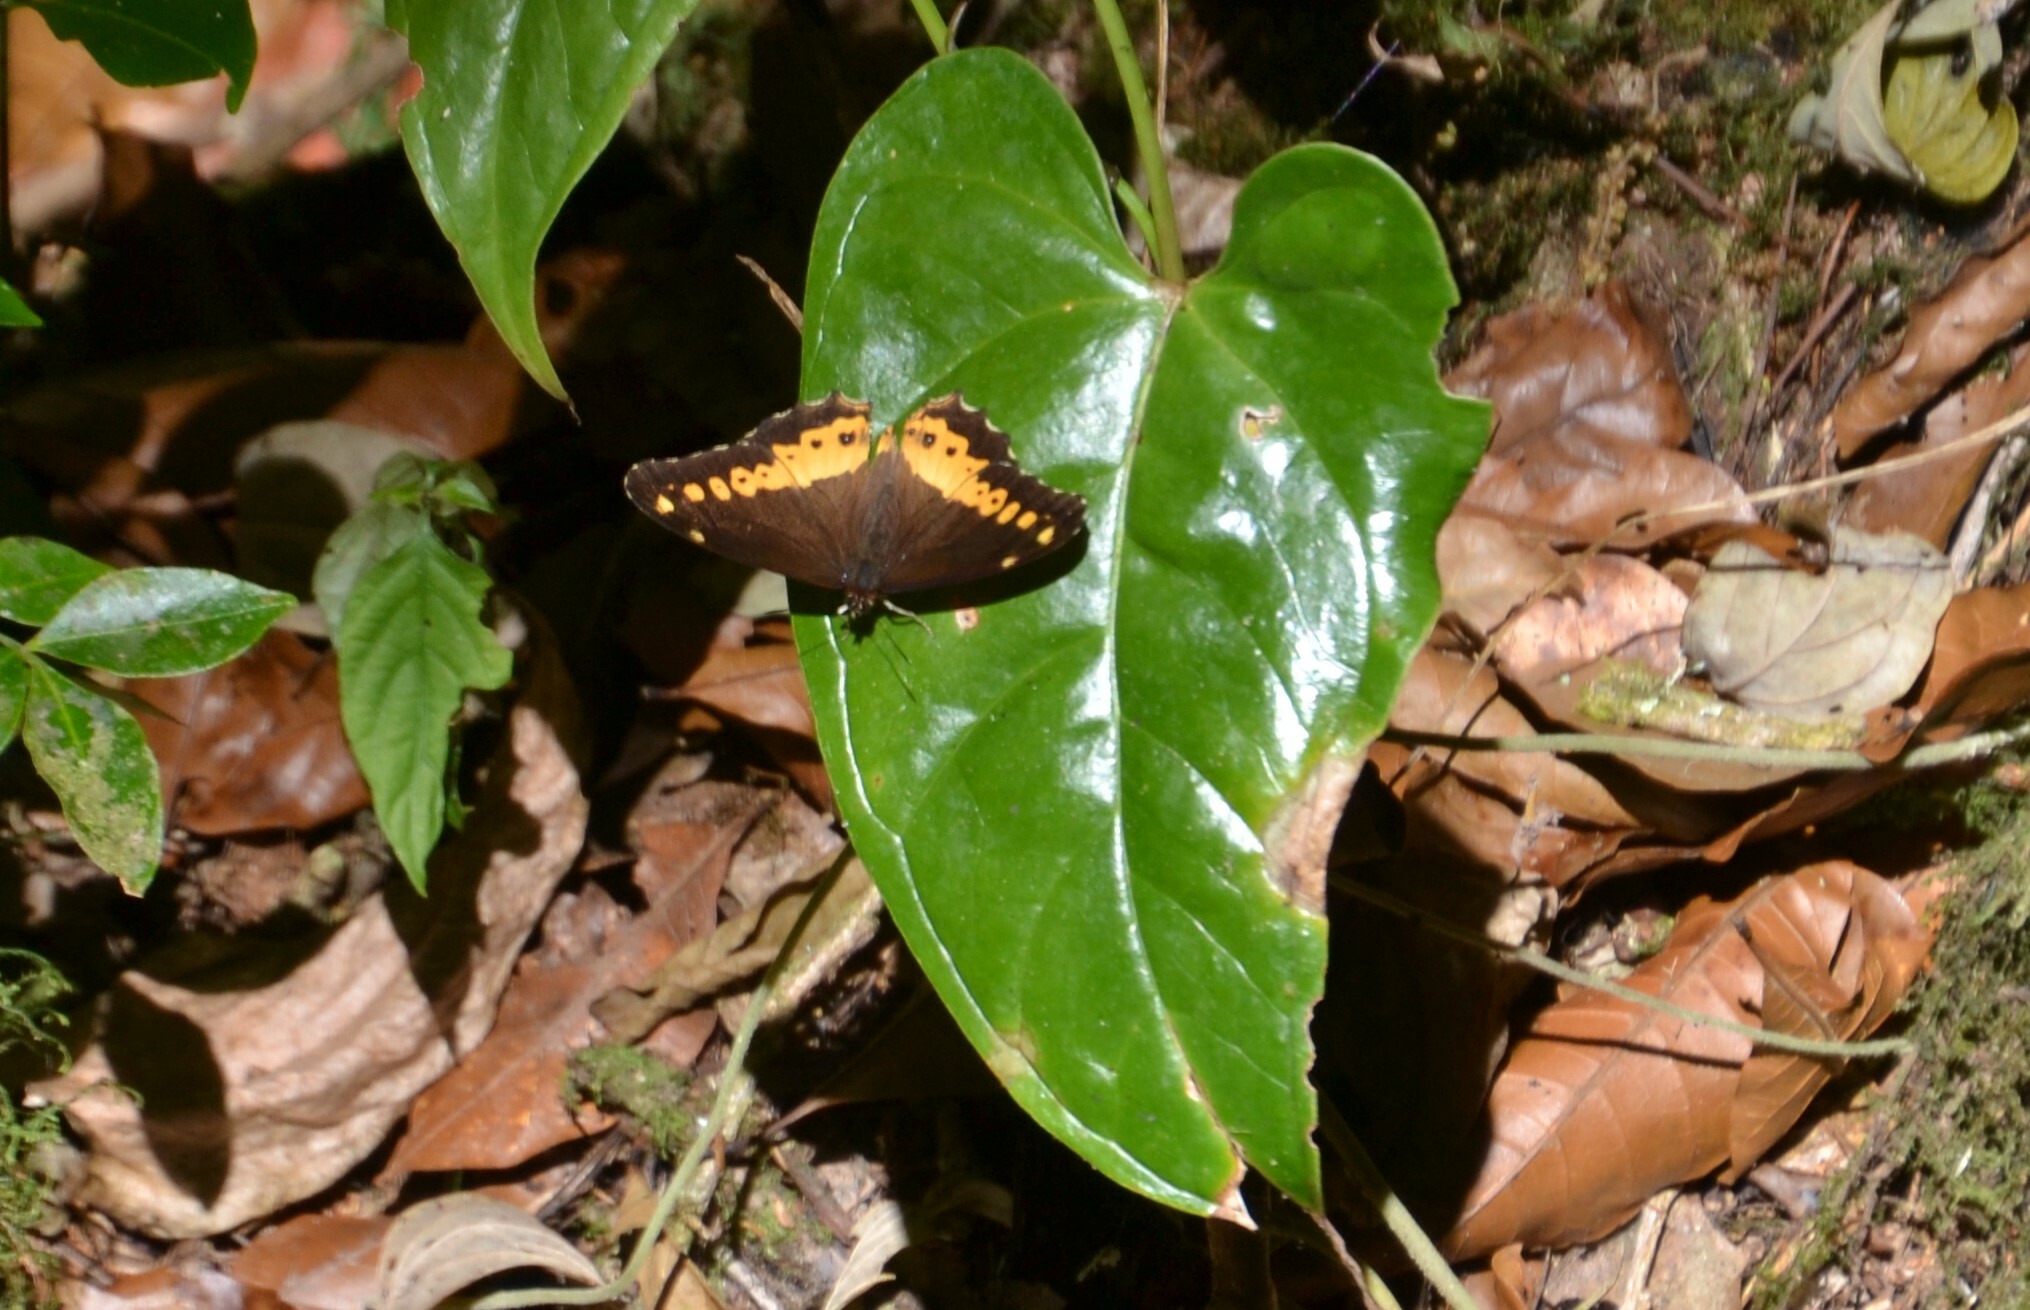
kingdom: Animalia
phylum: Arthropoda
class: Insecta
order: Lepidoptera
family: Nymphalidae
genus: Oxeoschistus
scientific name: Oxeoschistus euriphyle
